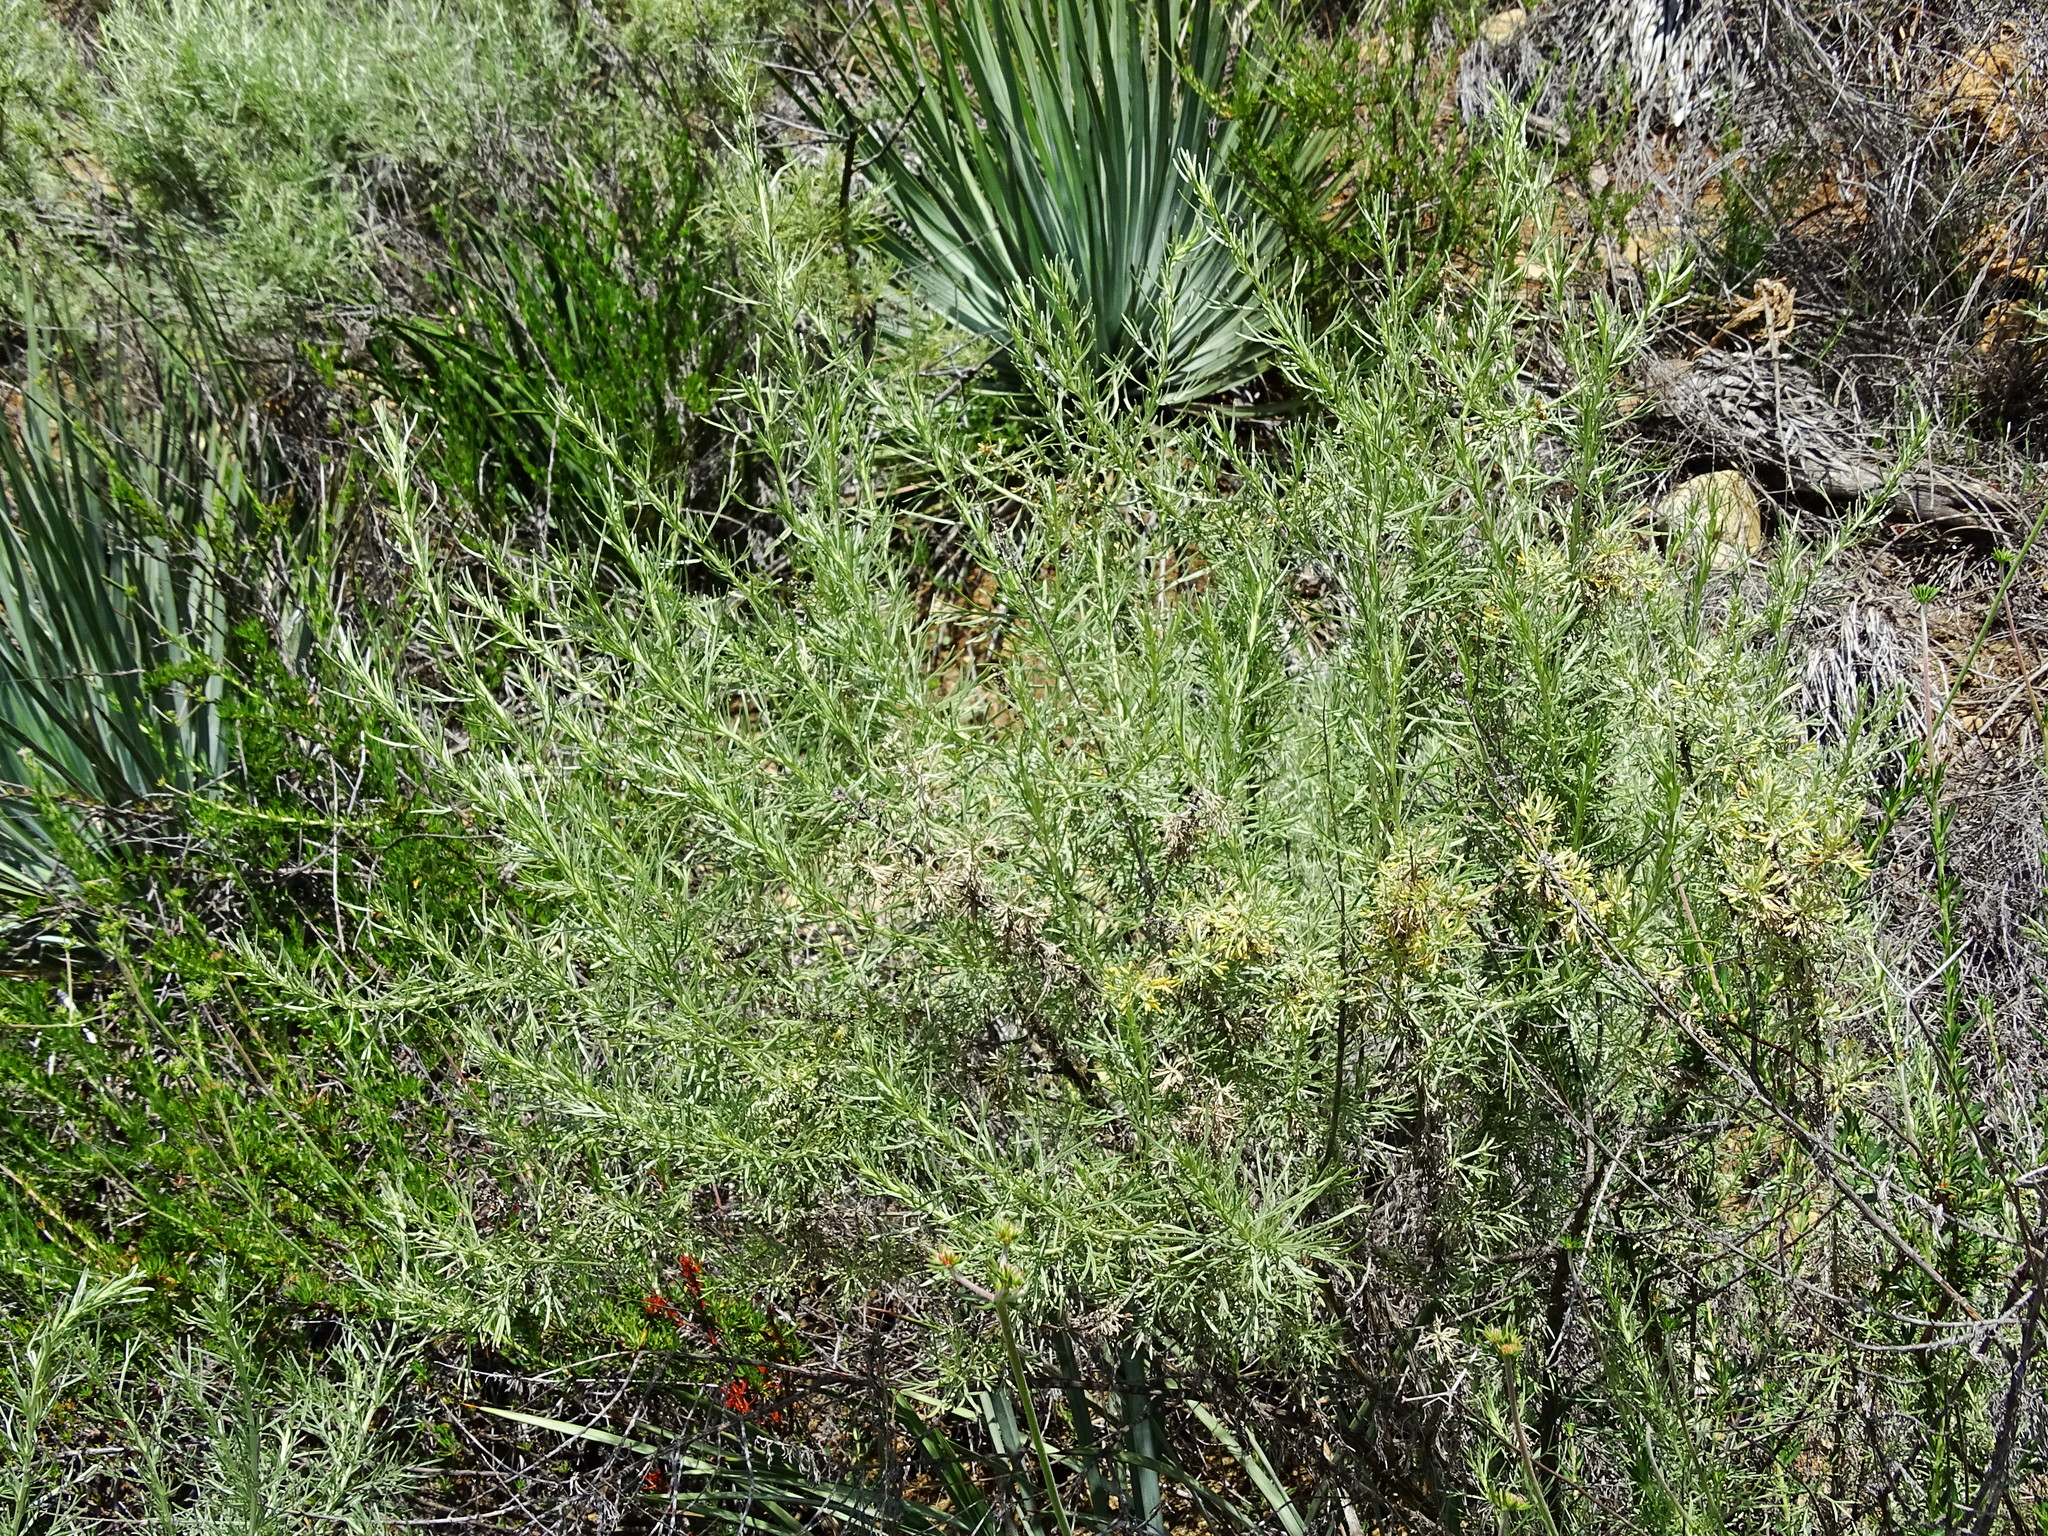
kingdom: Plantae
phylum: Tracheophyta
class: Magnoliopsida
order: Asterales
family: Asteraceae
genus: Artemisia
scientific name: Artemisia californica
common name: California sagebrush
